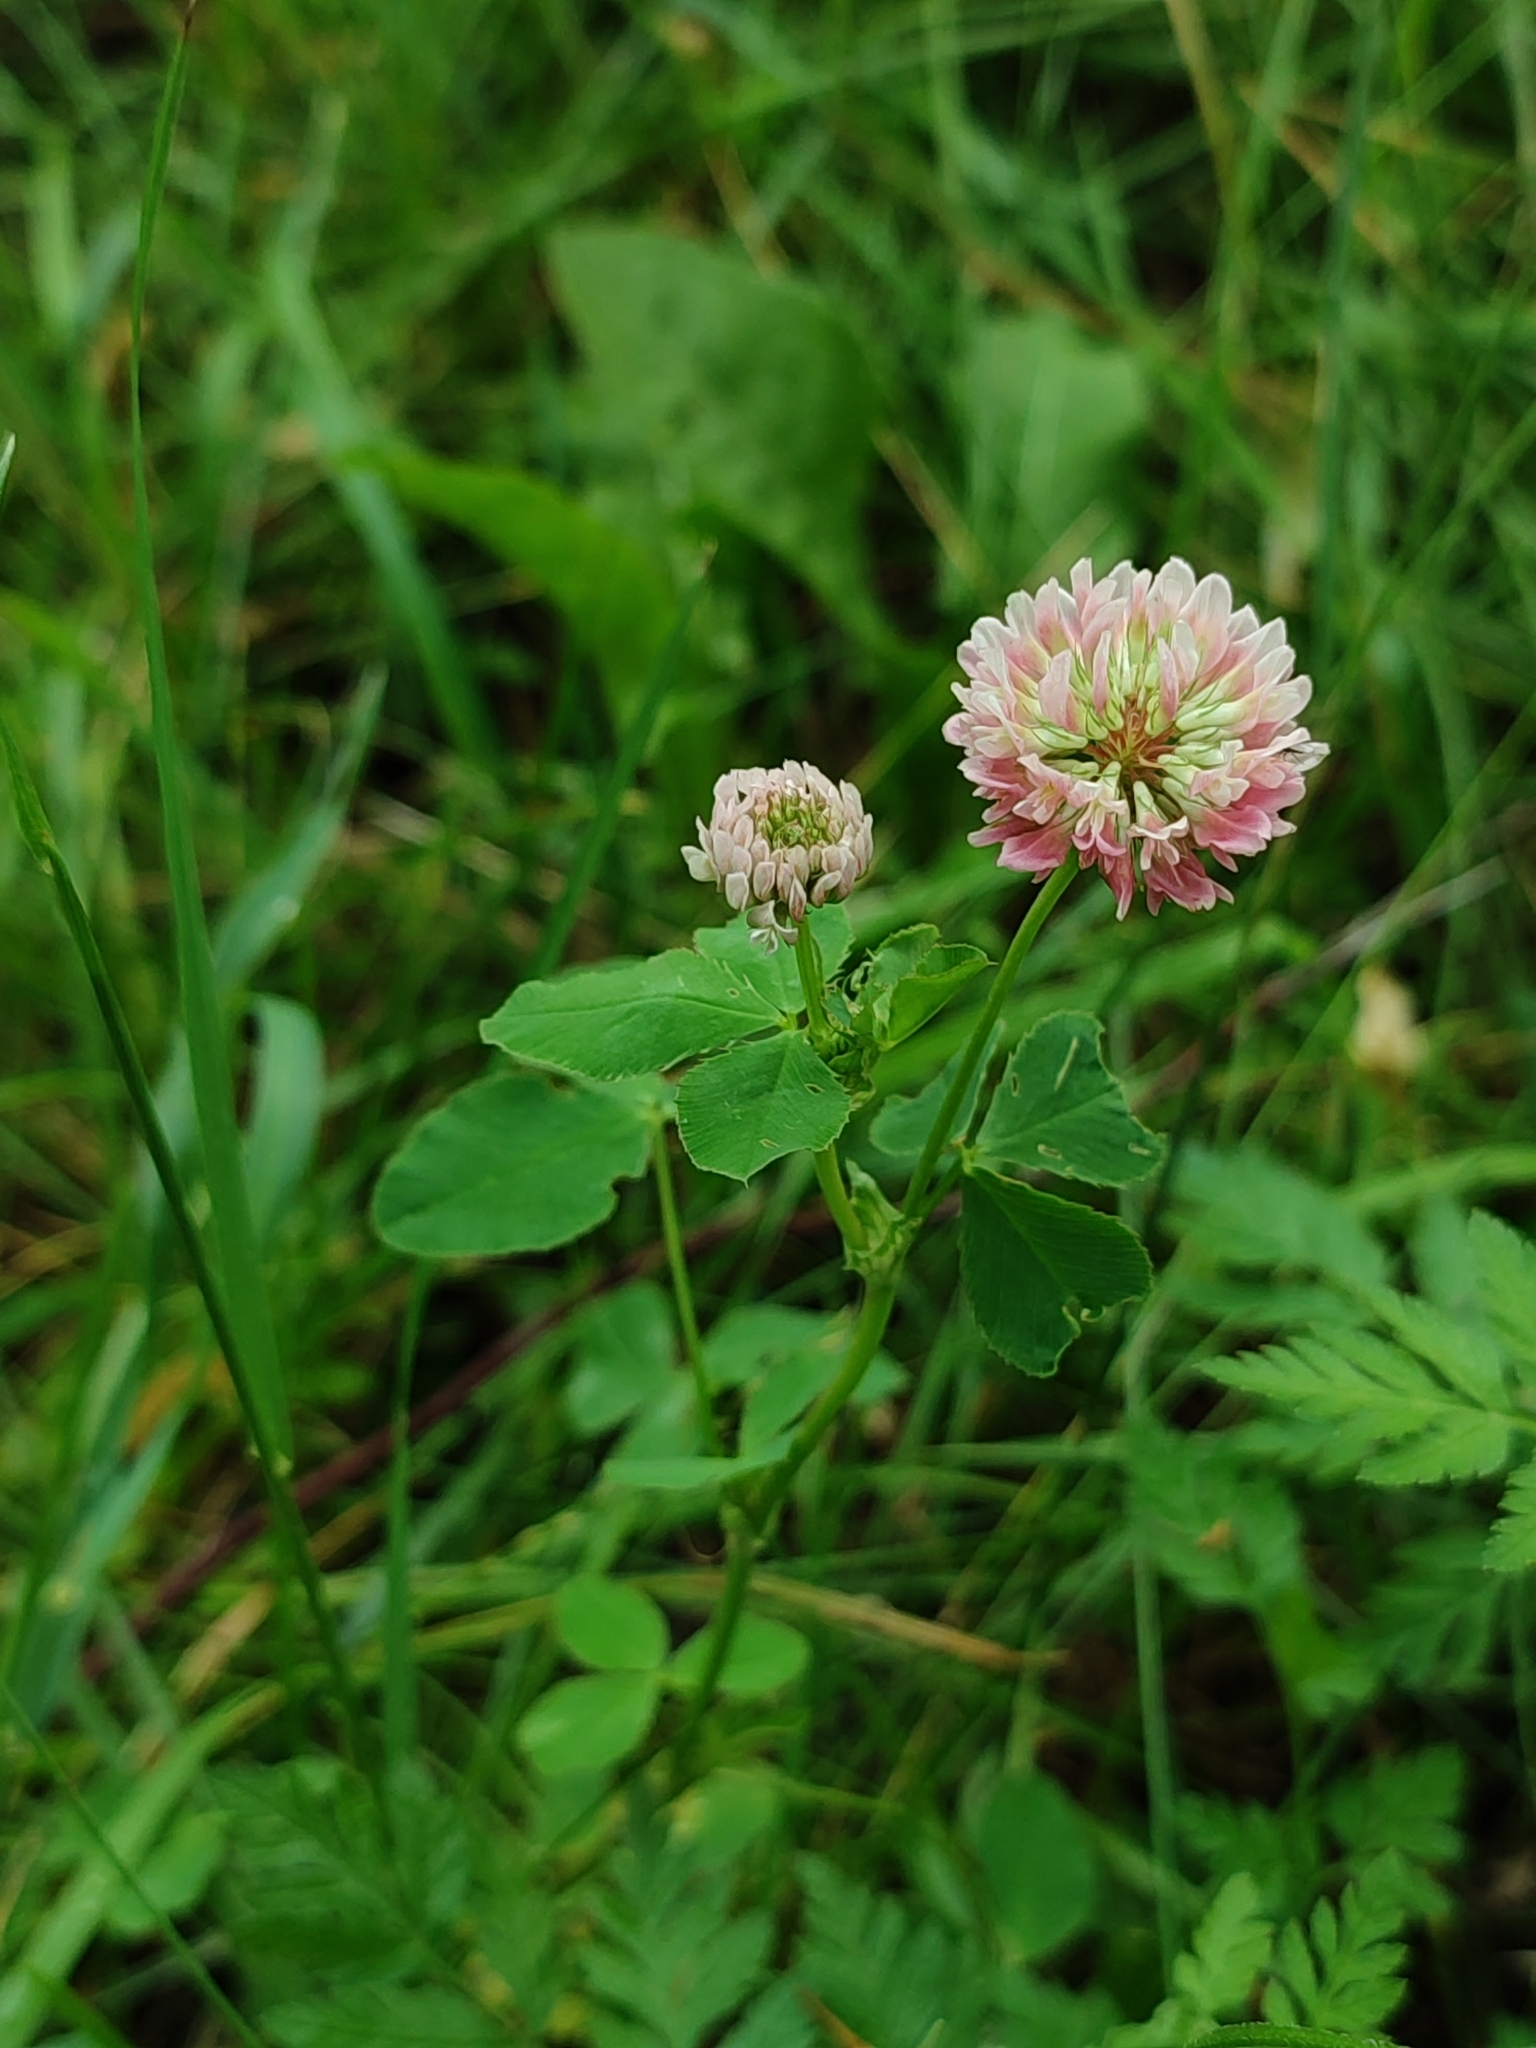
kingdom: Plantae
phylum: Tracheophyta
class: Magnoliopsida
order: Fabales
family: Fabaceae
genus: Trifolium
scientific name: Trifolium hybridum
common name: Alsike clover
